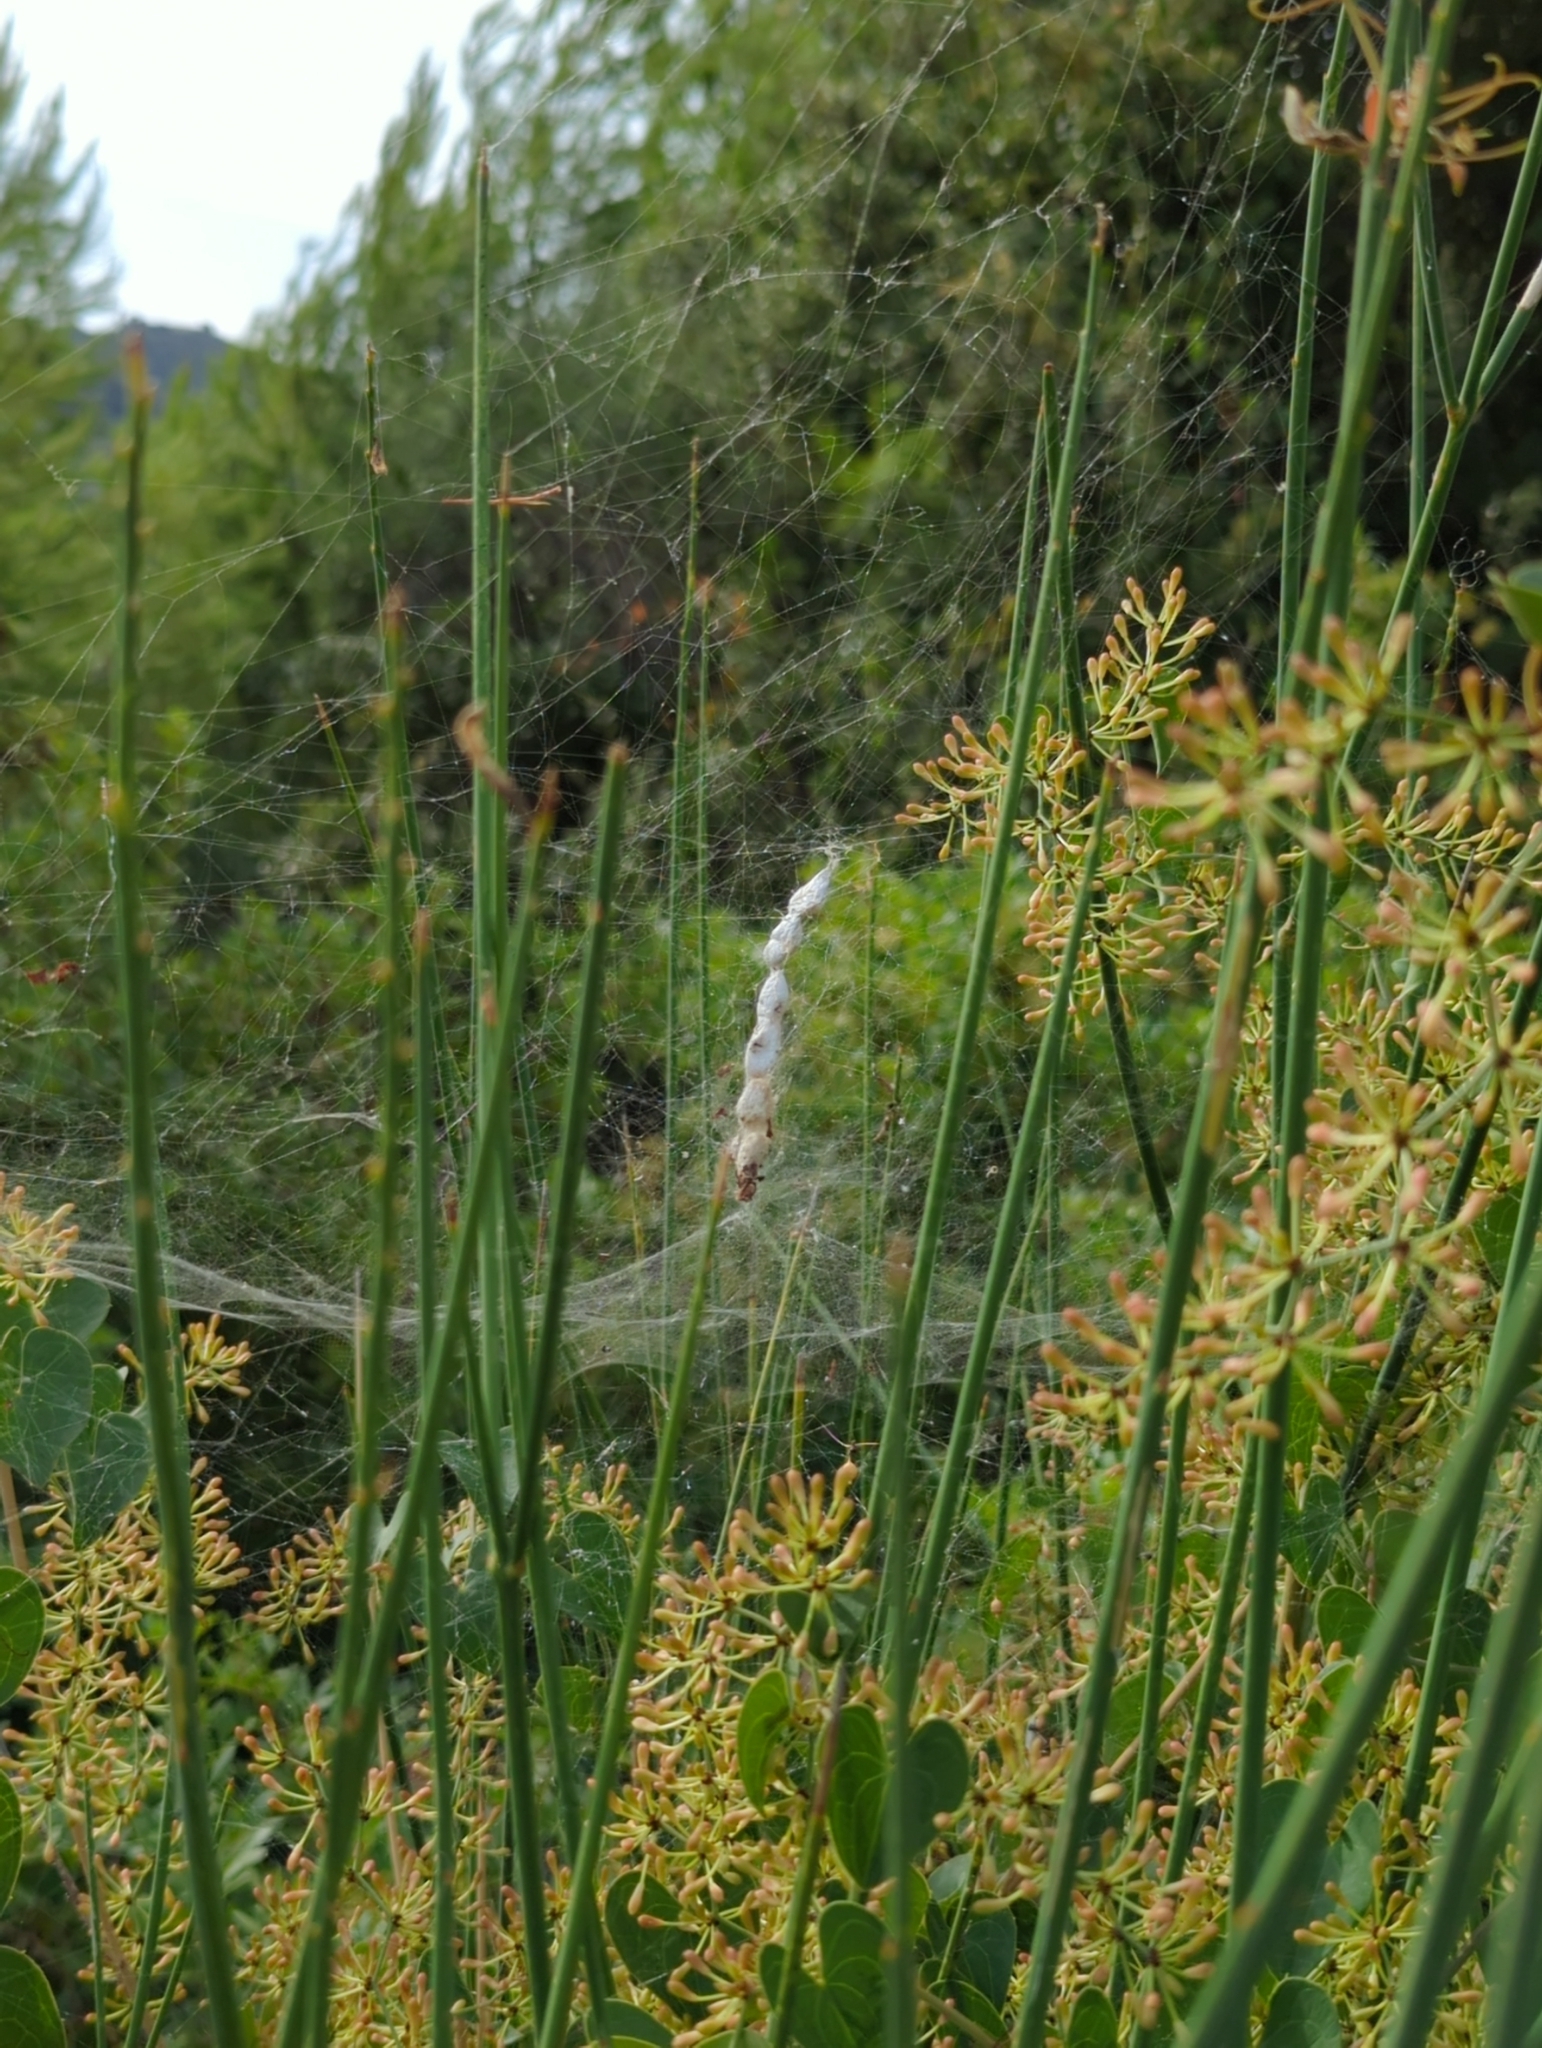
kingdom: Animalia
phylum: Arthropoda
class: Arachnida
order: Araneae
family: Araneidae
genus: Cyrtophora
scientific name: Cyrtophora citricola
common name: Orb weavers
